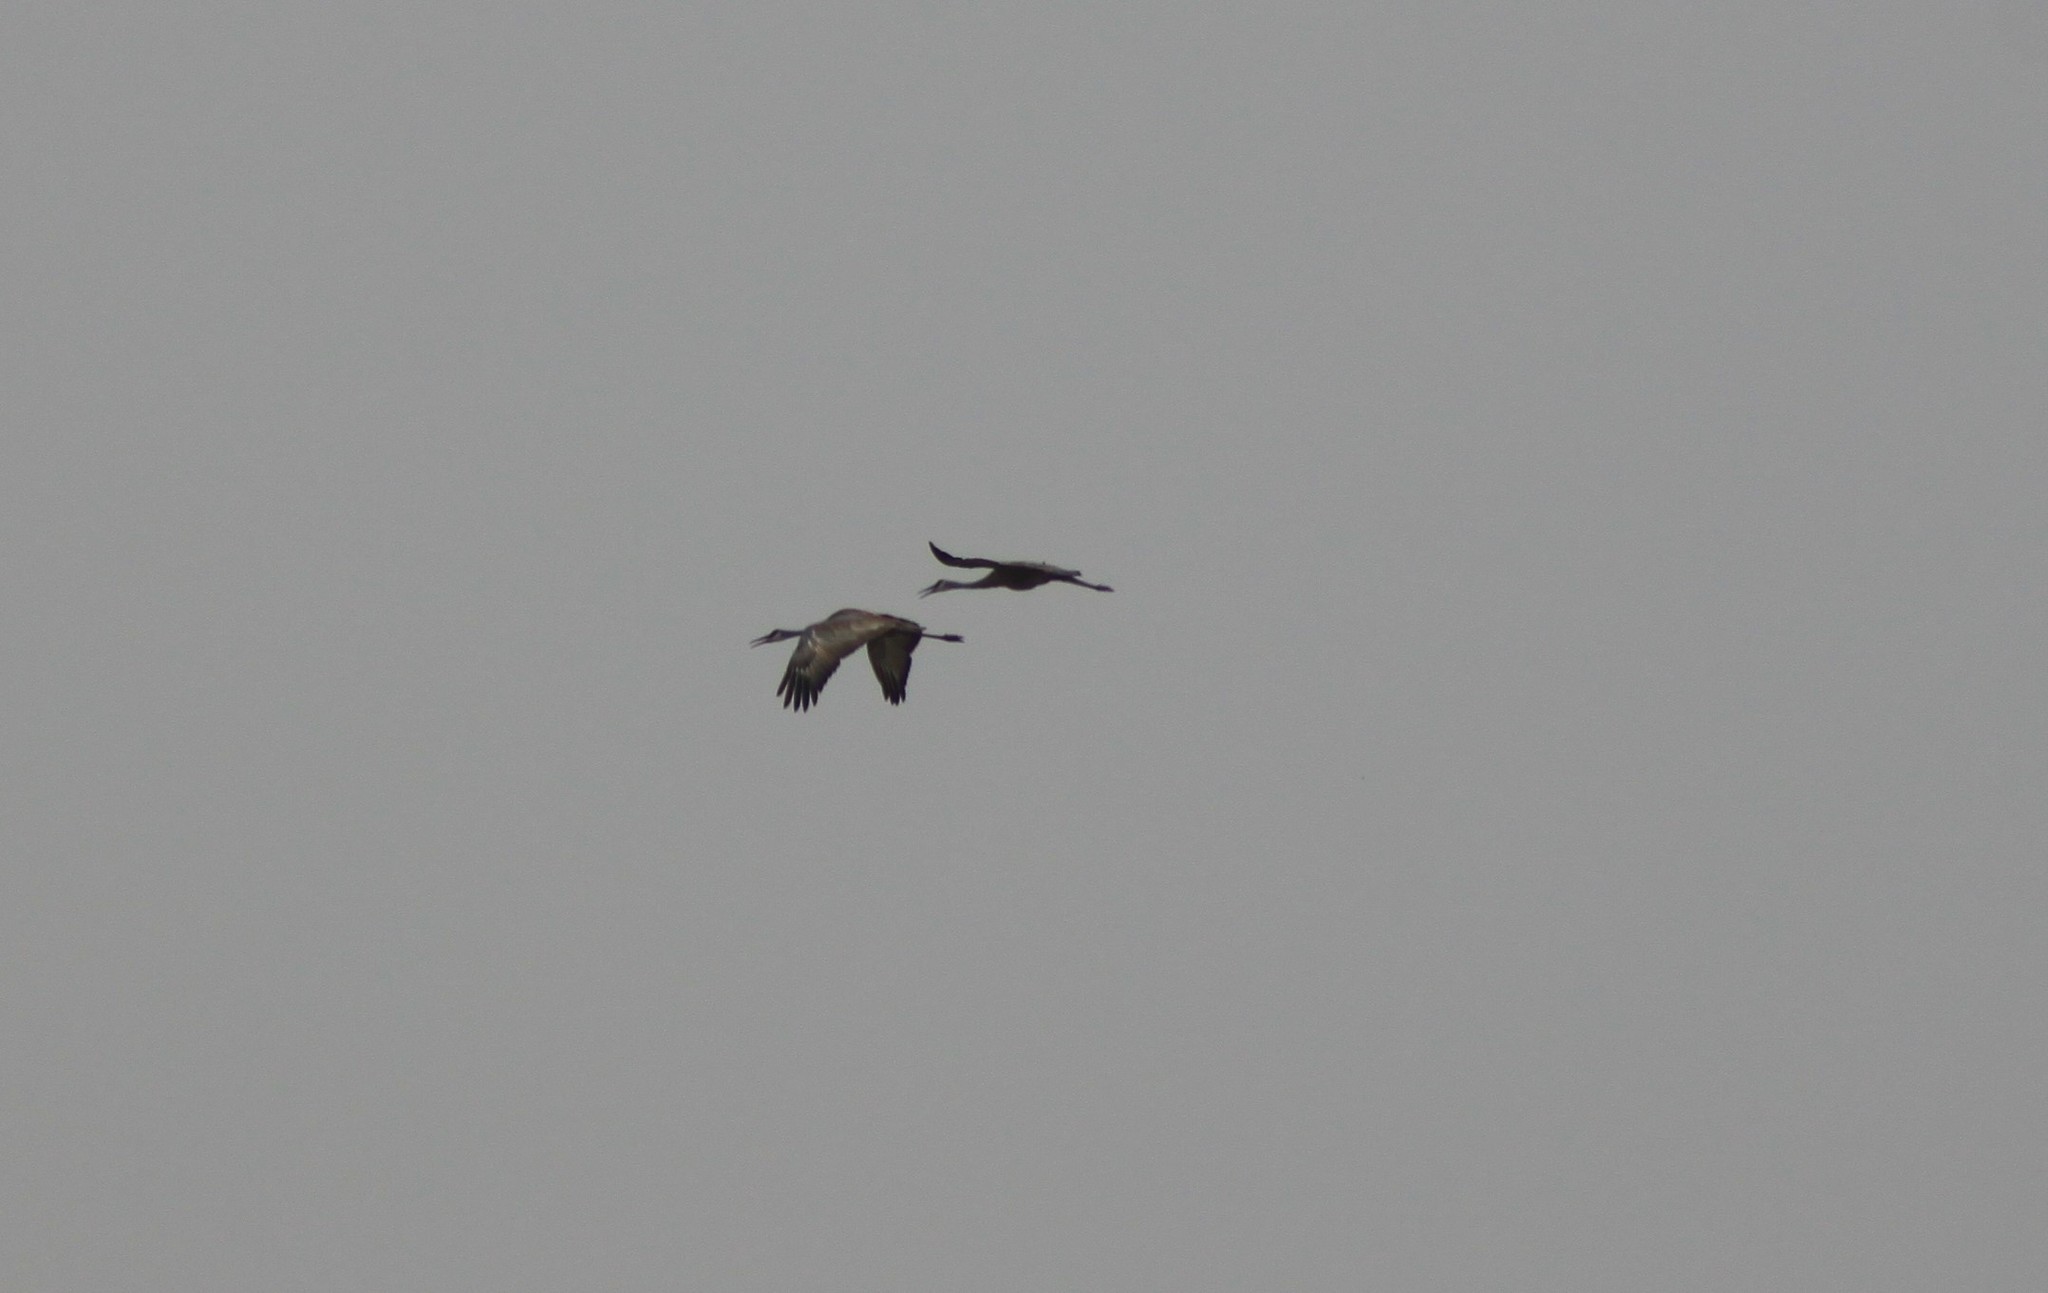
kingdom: Animalia
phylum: Chordata
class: Aves
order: Gruiformes
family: Gruidae
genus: Grus
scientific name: Grus canadensis
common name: Sandhill crane
